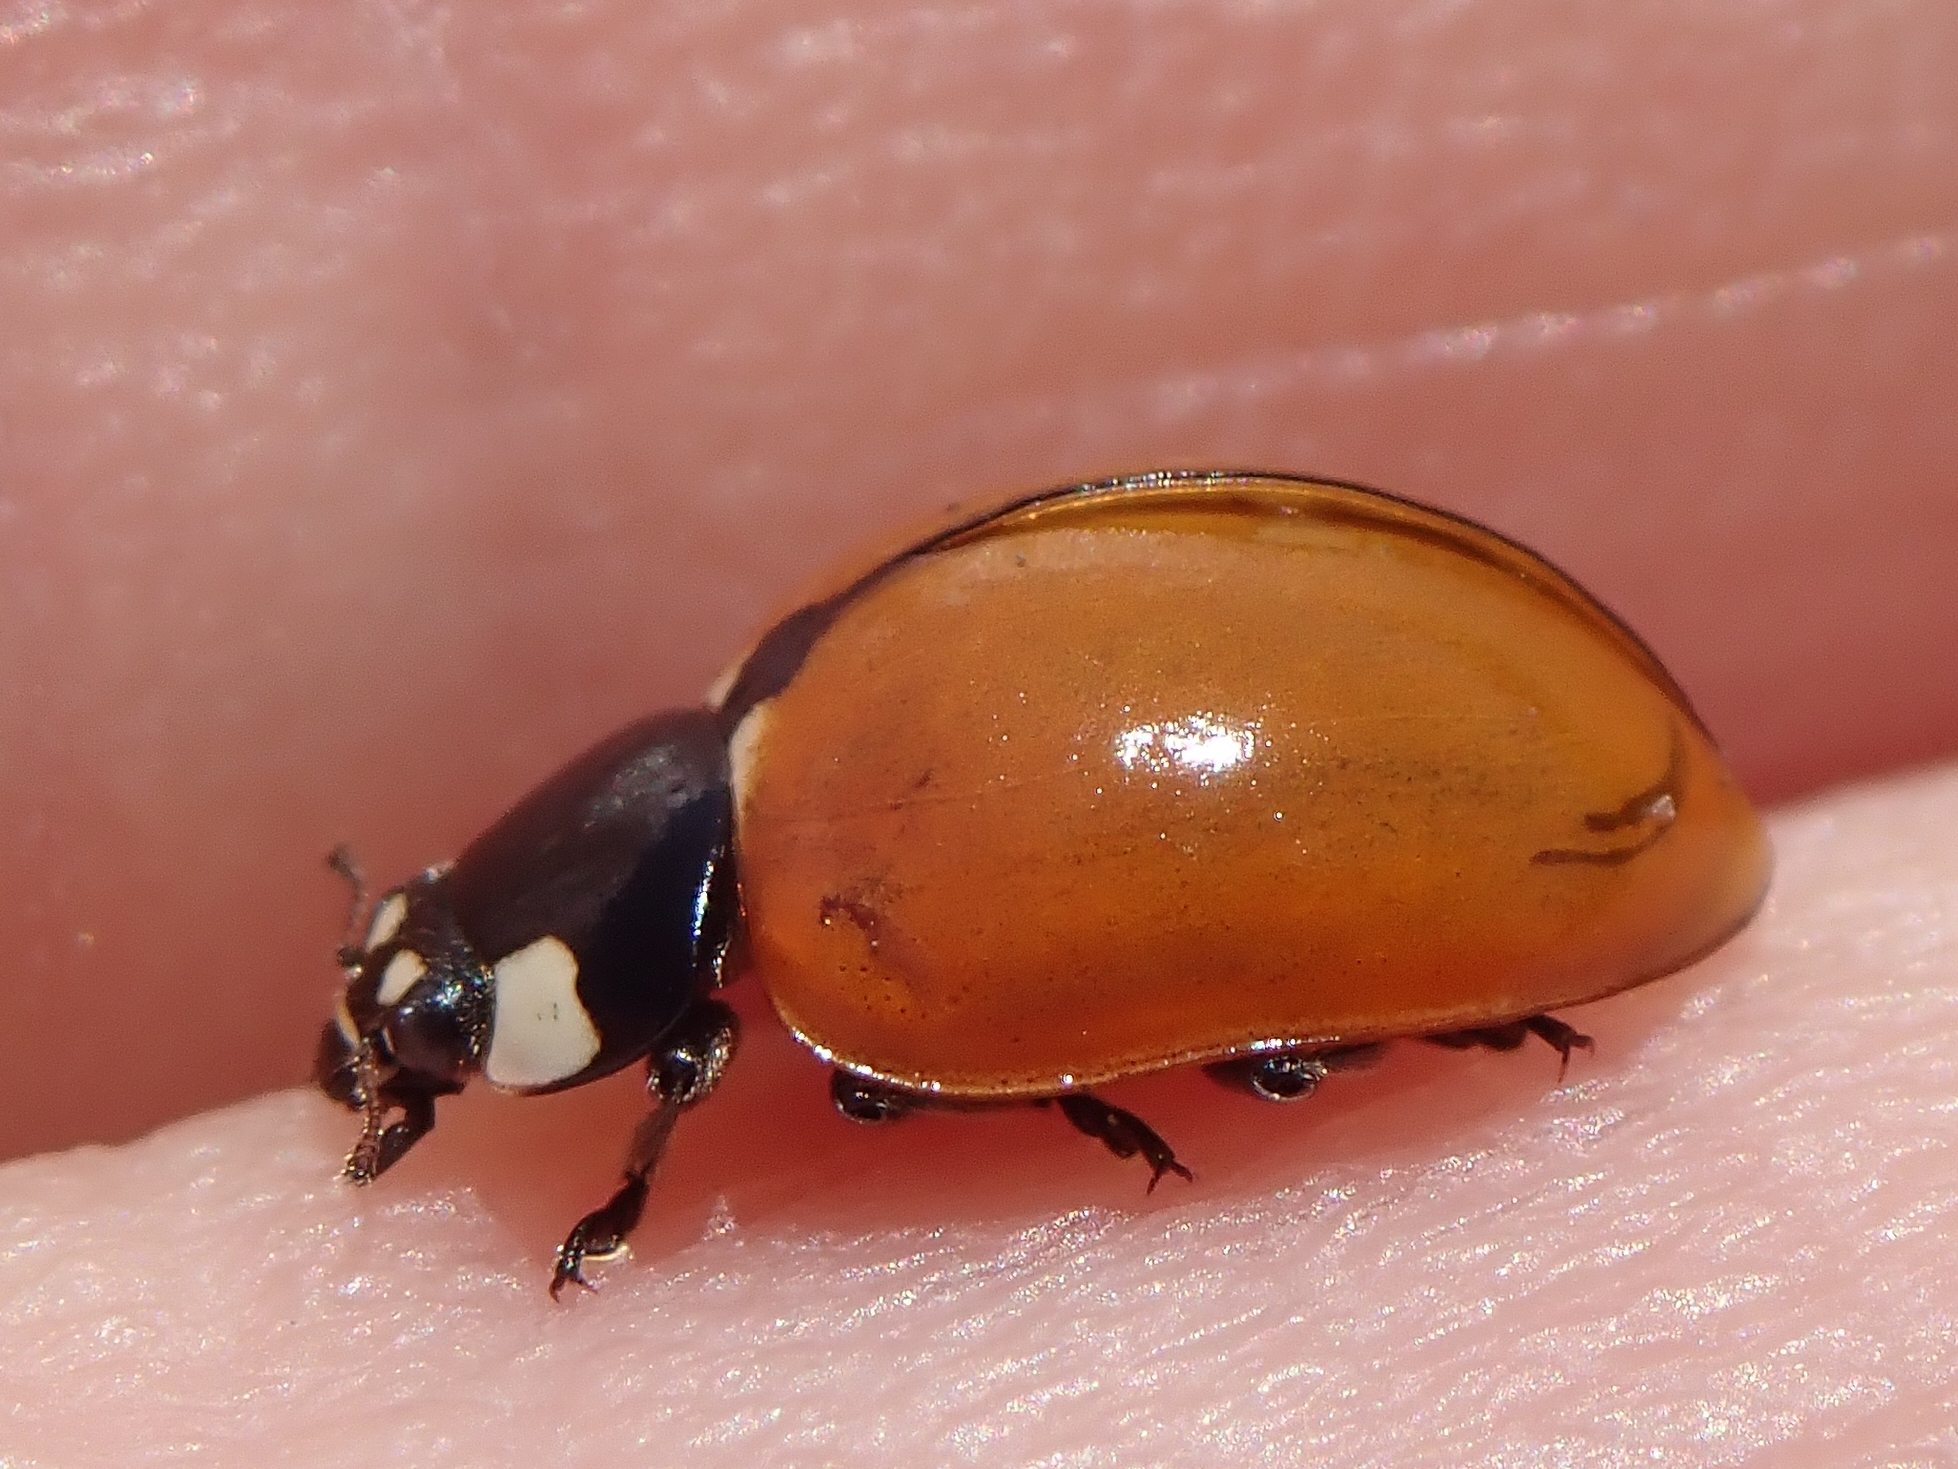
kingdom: Animalia
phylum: Arthropoda
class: Insecta
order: Coleoptera
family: Coccinellidae
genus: Coccinella
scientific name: Coccinella californica
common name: Lady beetle
